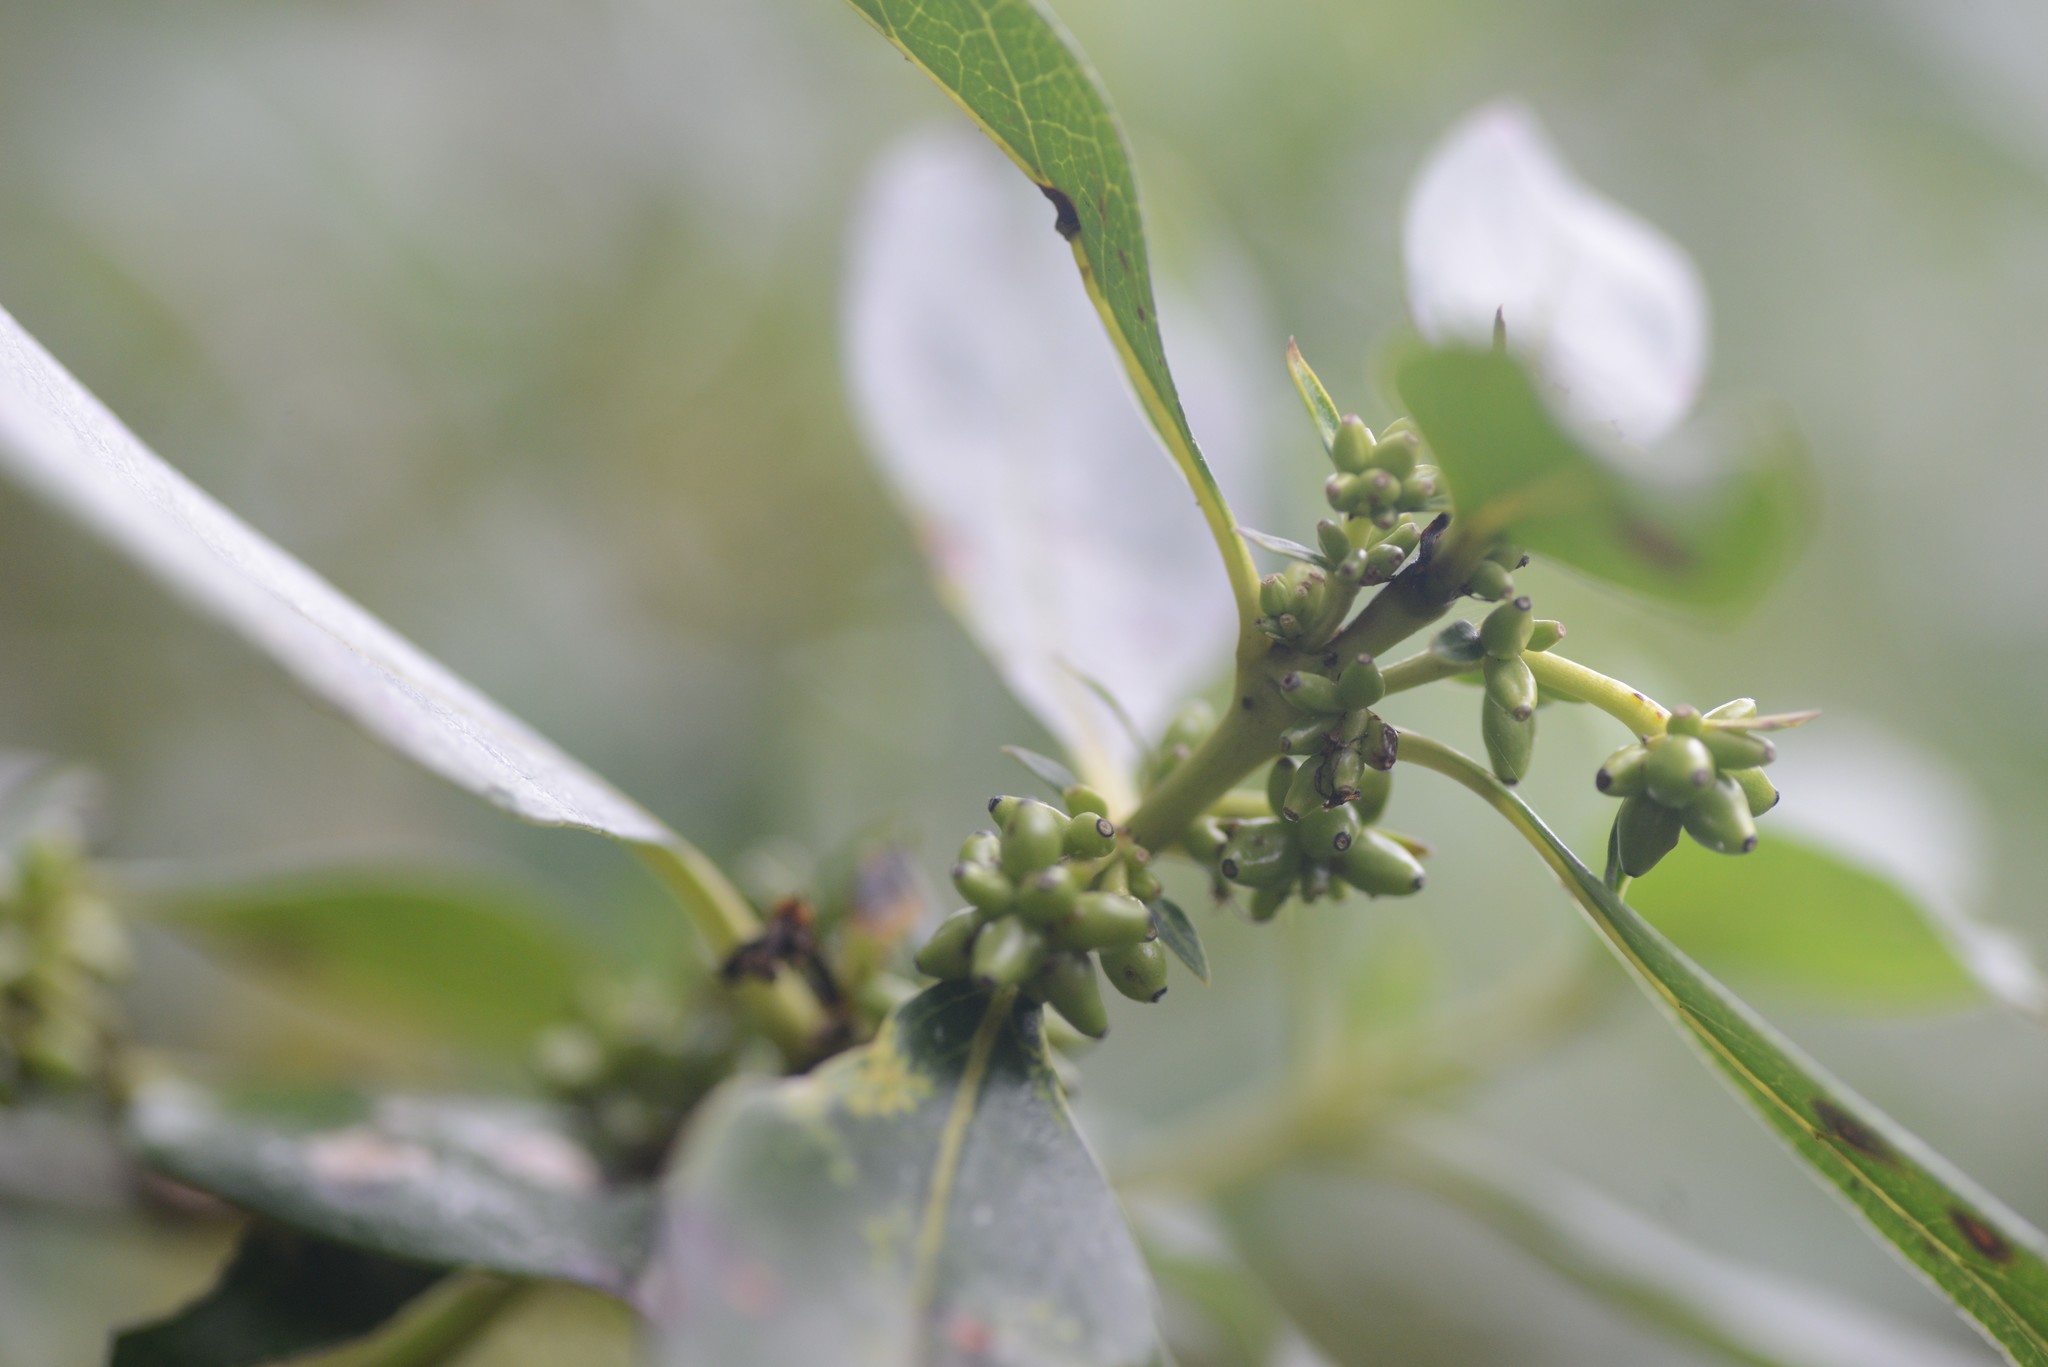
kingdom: Plantae
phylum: Tracheophyta
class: Magnoliopsida
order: Gentianales
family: Rubiaceae
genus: Coprosma
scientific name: Coprosma robusta
